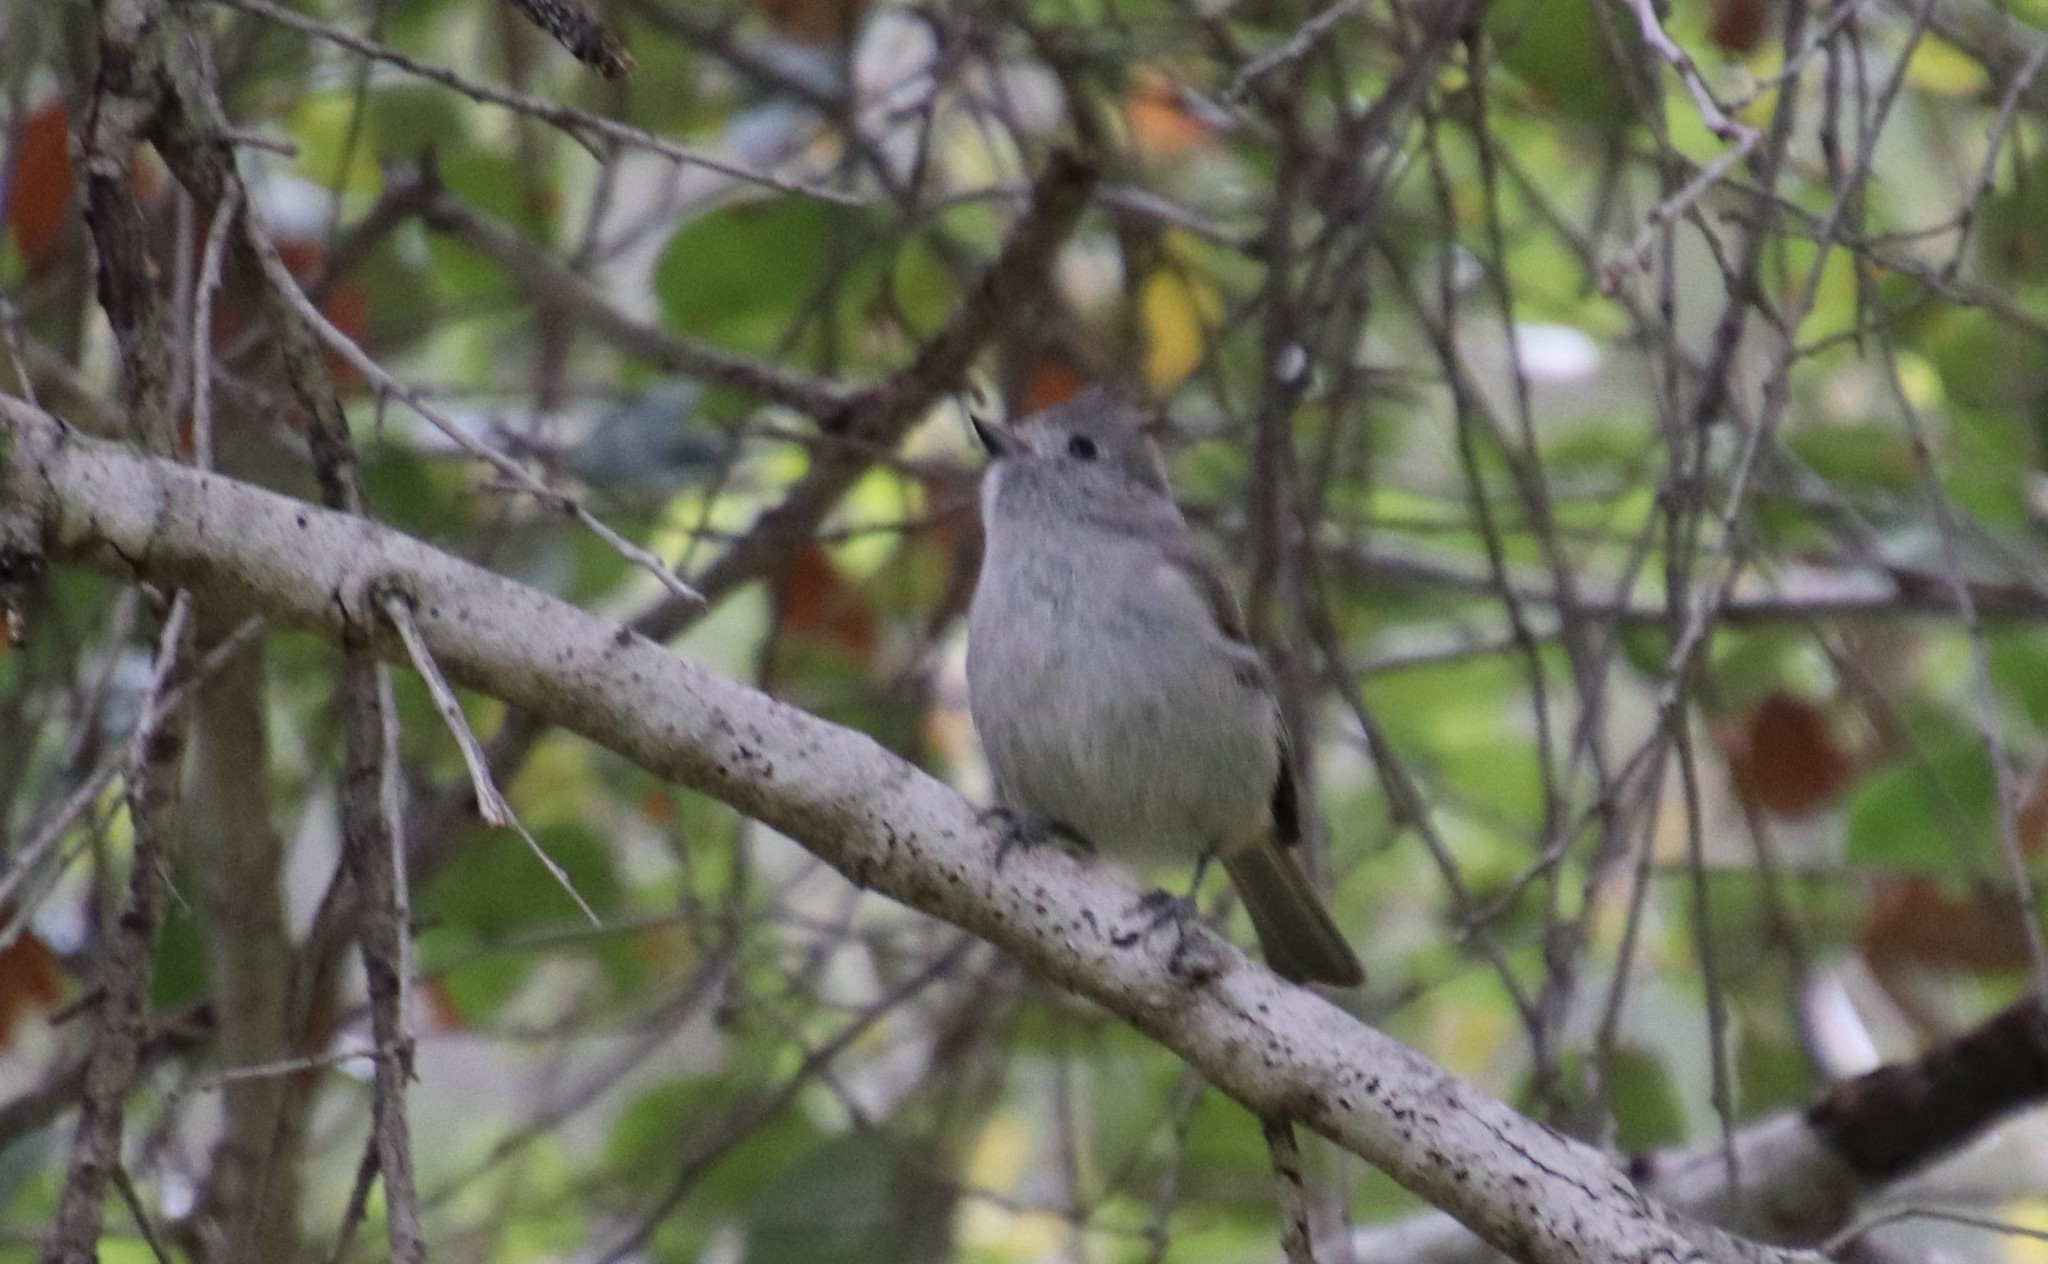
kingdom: Animalia
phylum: Chordata
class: Aves
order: Passeriformes
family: Paridae
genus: Baeolophus
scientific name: Baeolophus inornatus
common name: Oak titmouse
